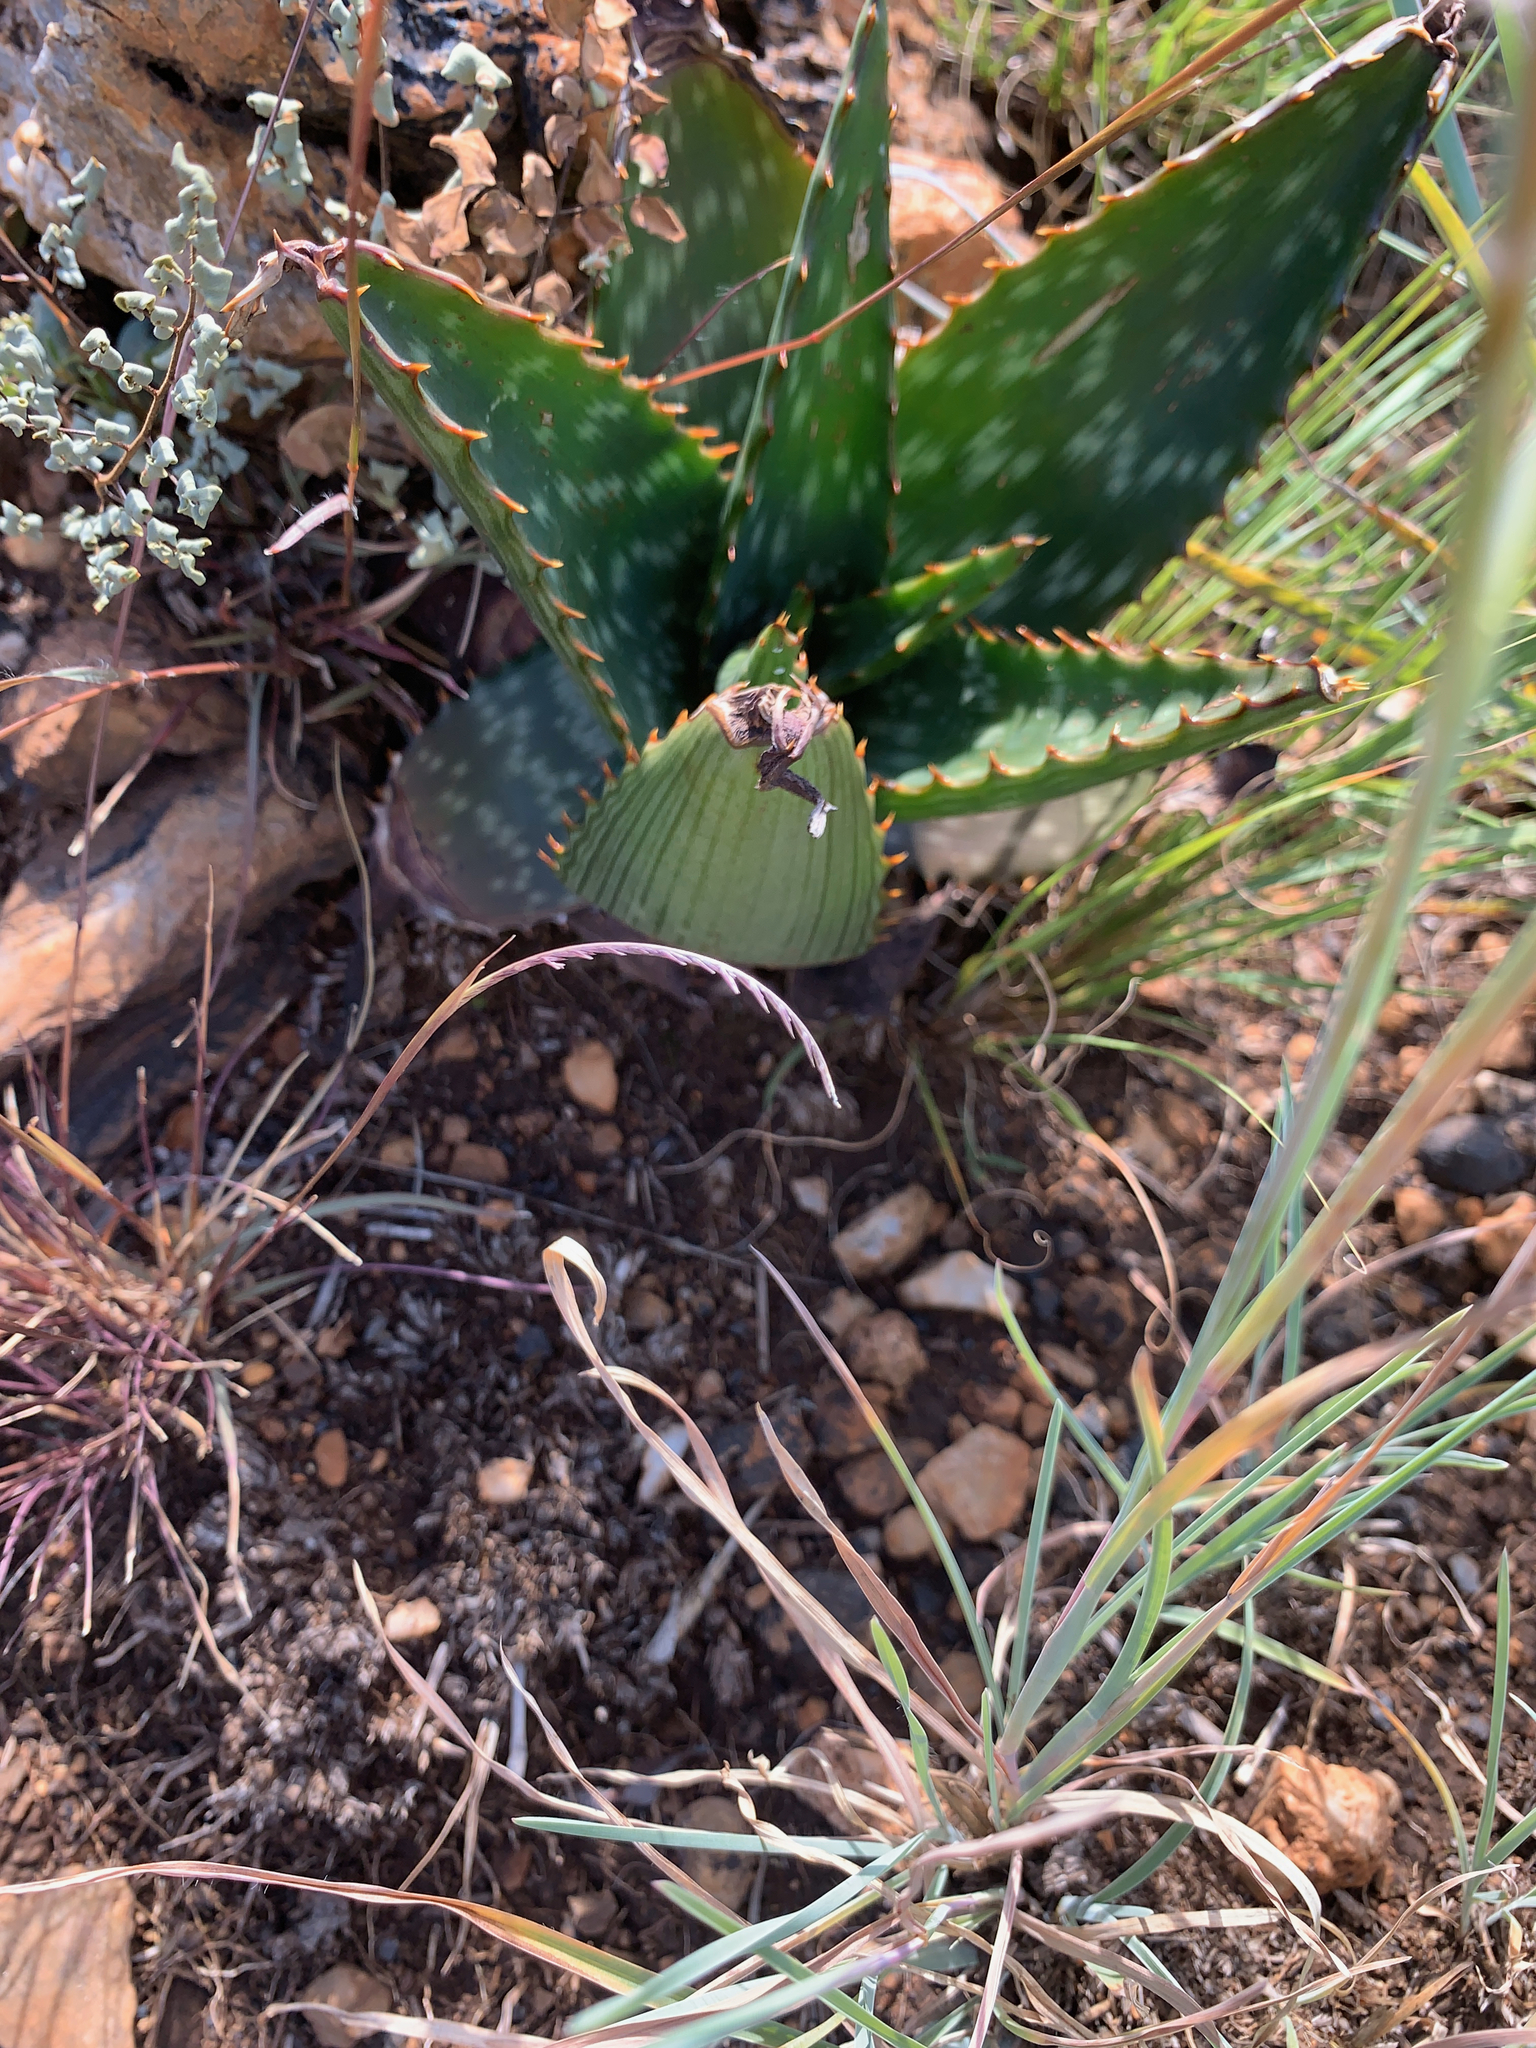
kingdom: Plantae
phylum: Tracheophyta
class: Liliopsida
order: Asparagales
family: Asphodelaceae
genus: Aloe
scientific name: Aloe davyana
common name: Spotted aloe
